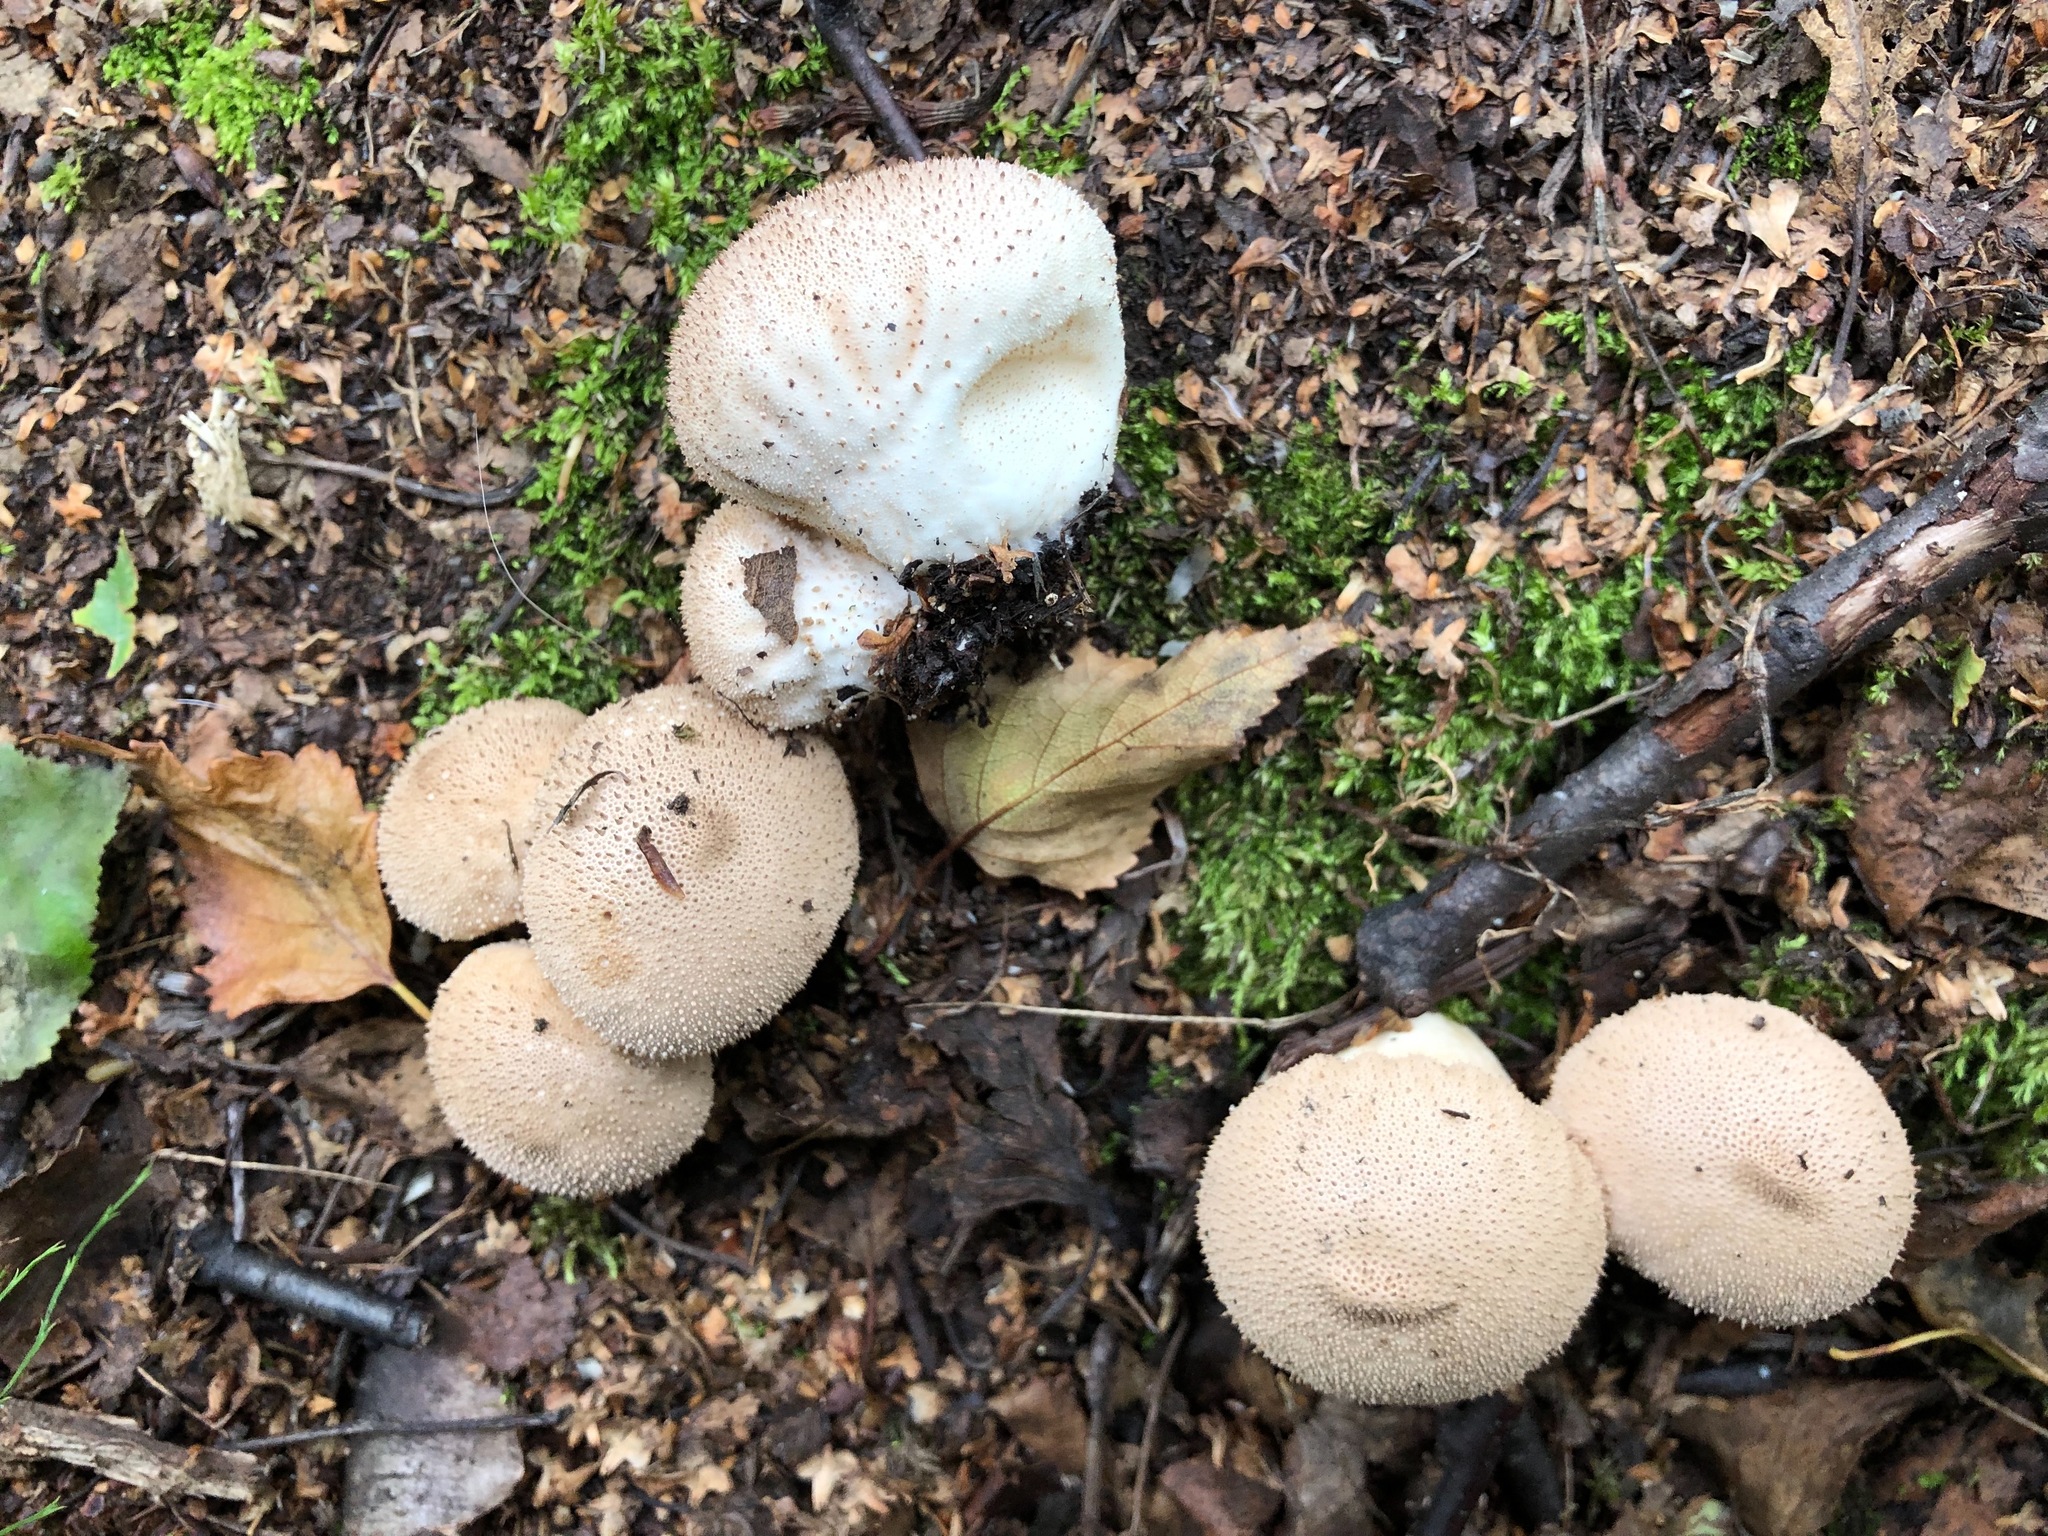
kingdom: Fungi
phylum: Basidiomycota
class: Agaricomycetes
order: Agaricales
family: Lycoperdaceae
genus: Lycoperdon
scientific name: Lycoperdon perlatum
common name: Common puffball
